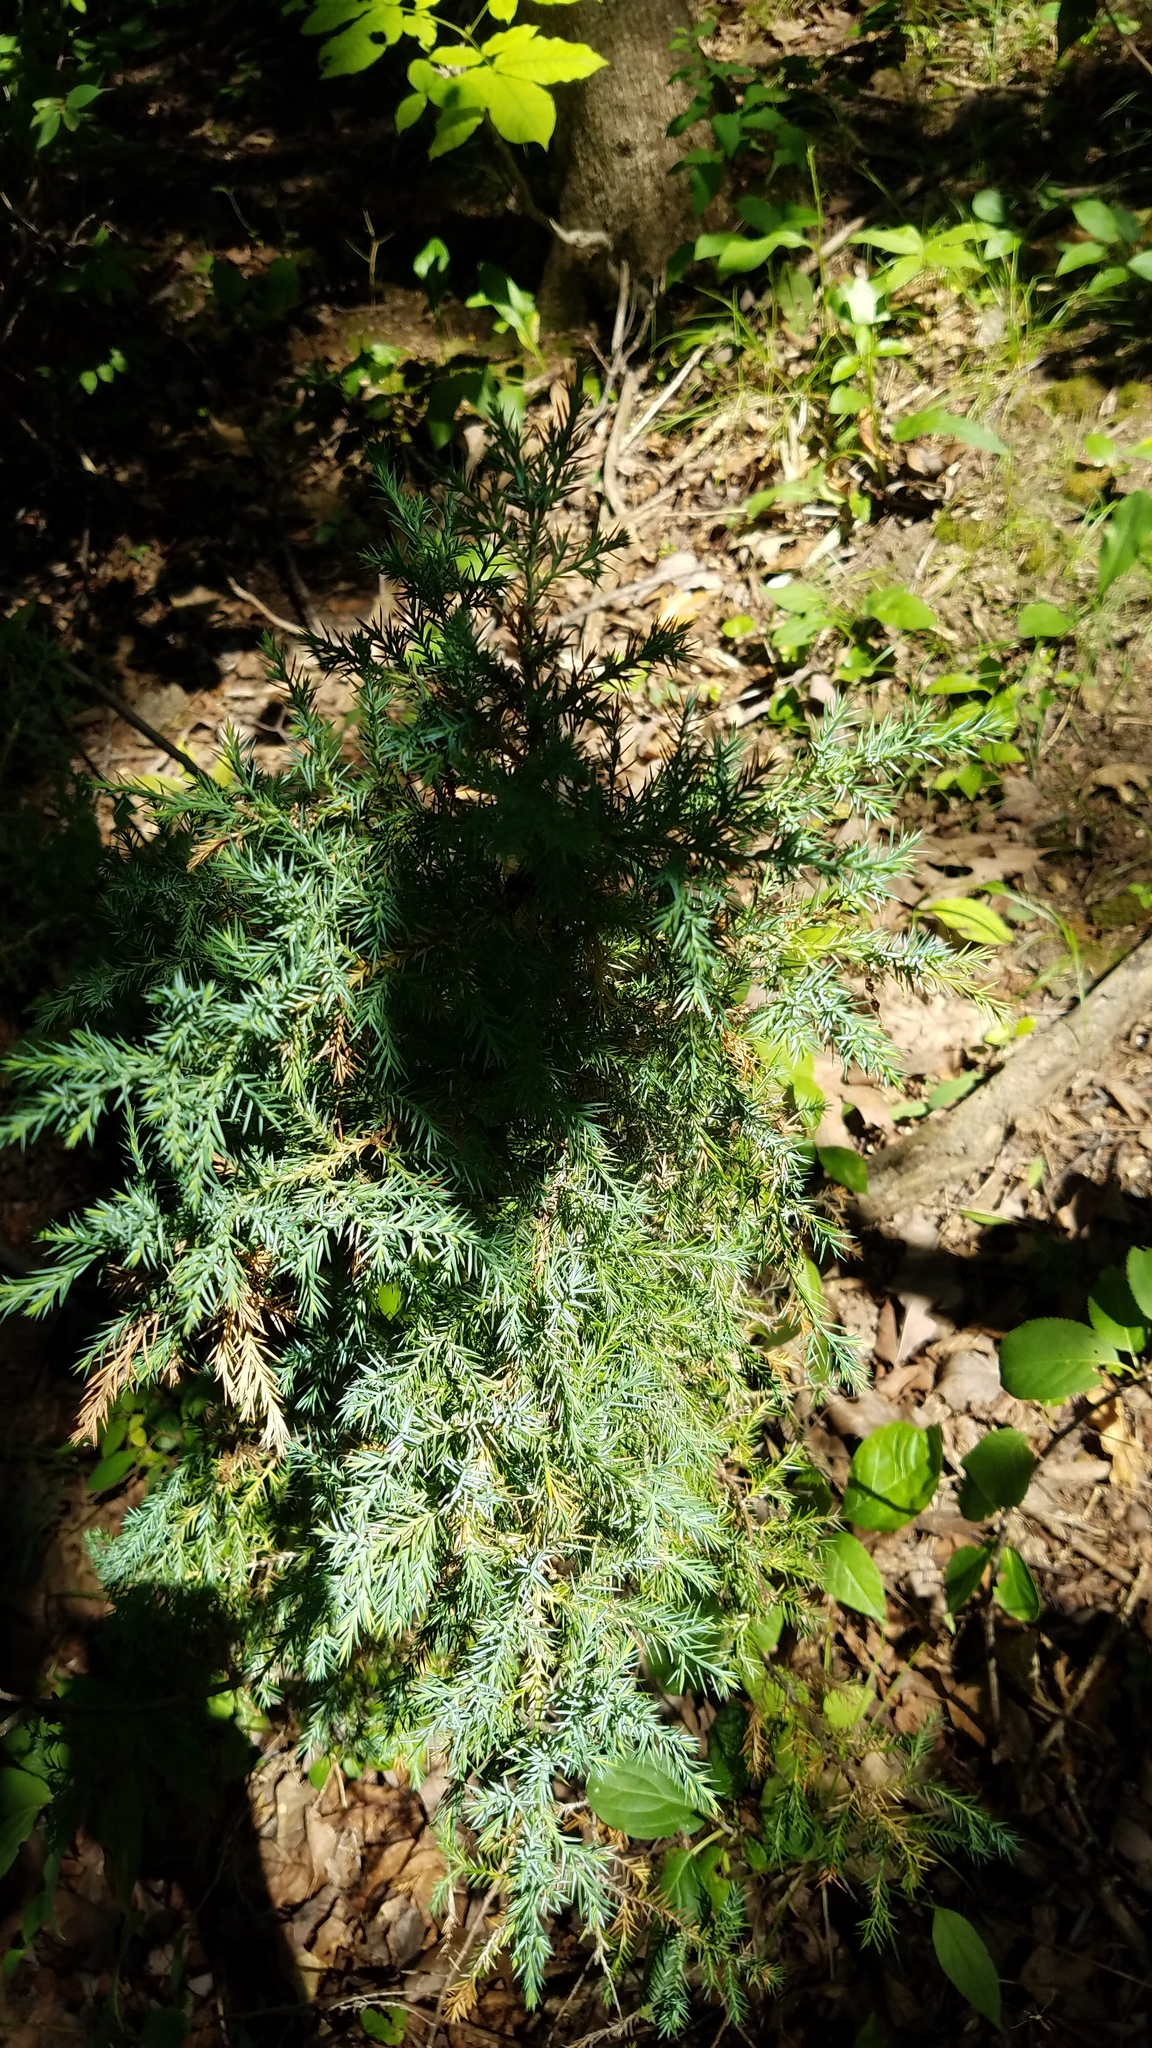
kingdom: Plantae
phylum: Tracheophyta
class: Pinopsida
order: Pinales
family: Cupressaceae
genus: Juniperus
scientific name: Juniperus virginiana
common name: Red juniper
